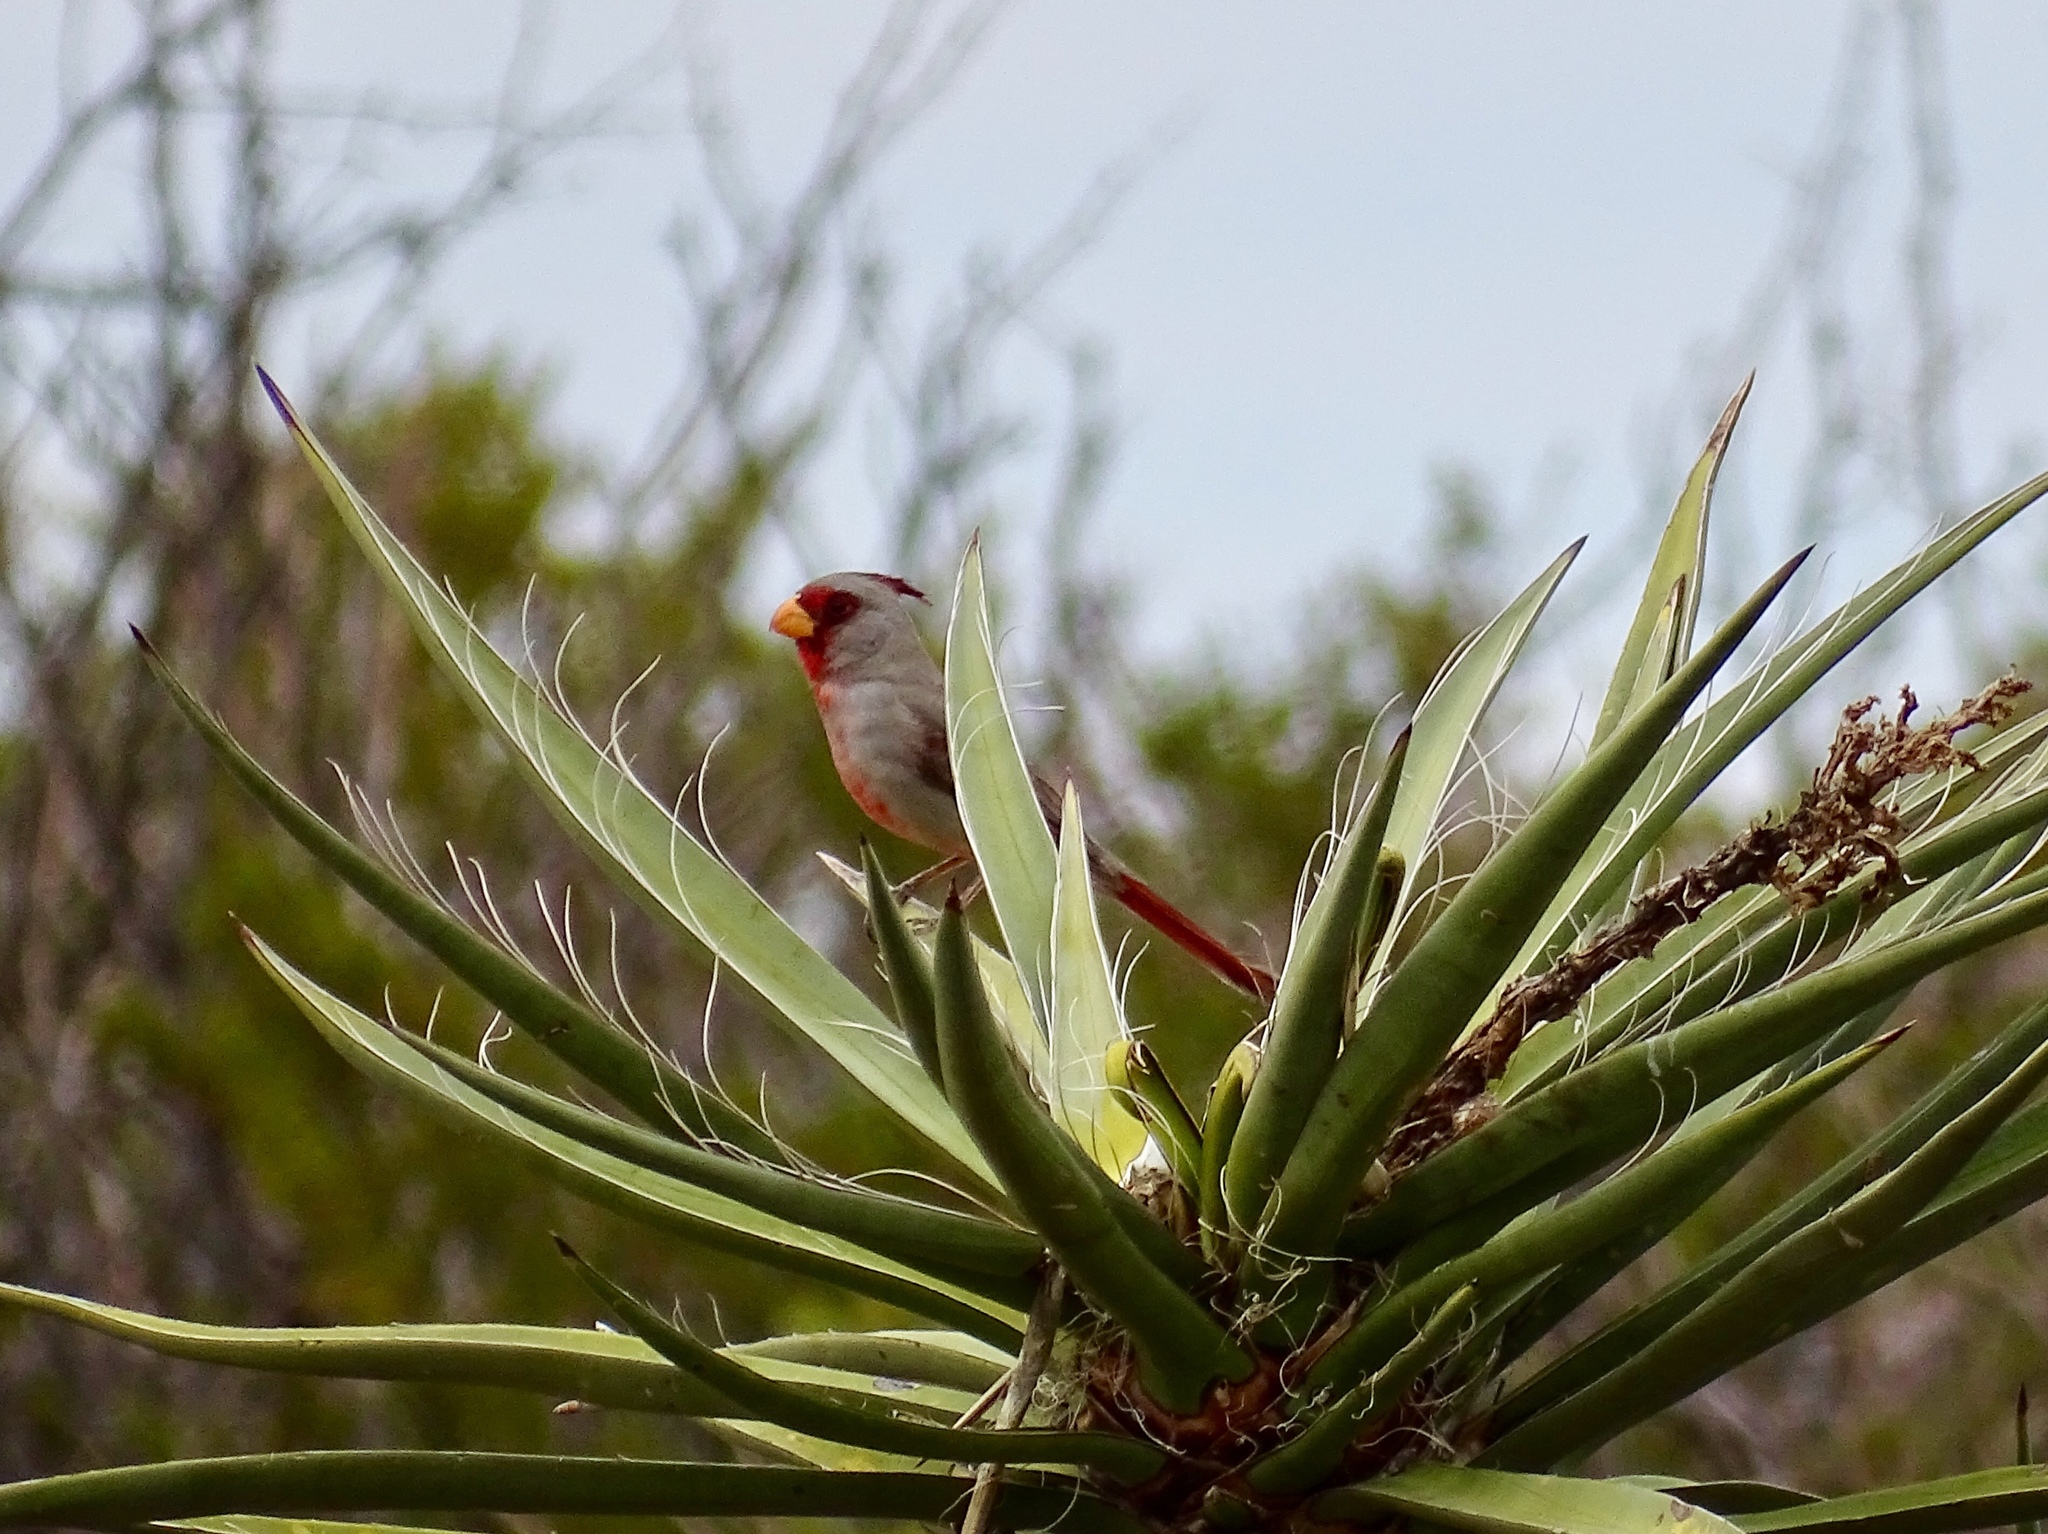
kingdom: Animalia
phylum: Chordata
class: Aves
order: Passeriformes
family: Cardinalidae
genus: Cardinalis
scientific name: Cardinalis sinuatus
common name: Pyrrhuloxia
